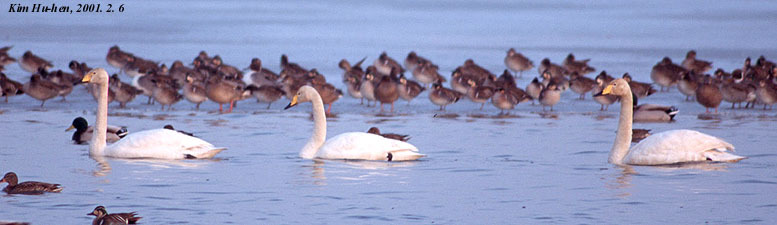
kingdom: Animalia
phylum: Chordata
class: Aves
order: Anseriformes
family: Anatidae
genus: Cygnus
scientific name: Cygnus cygnus
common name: Whooper swan
